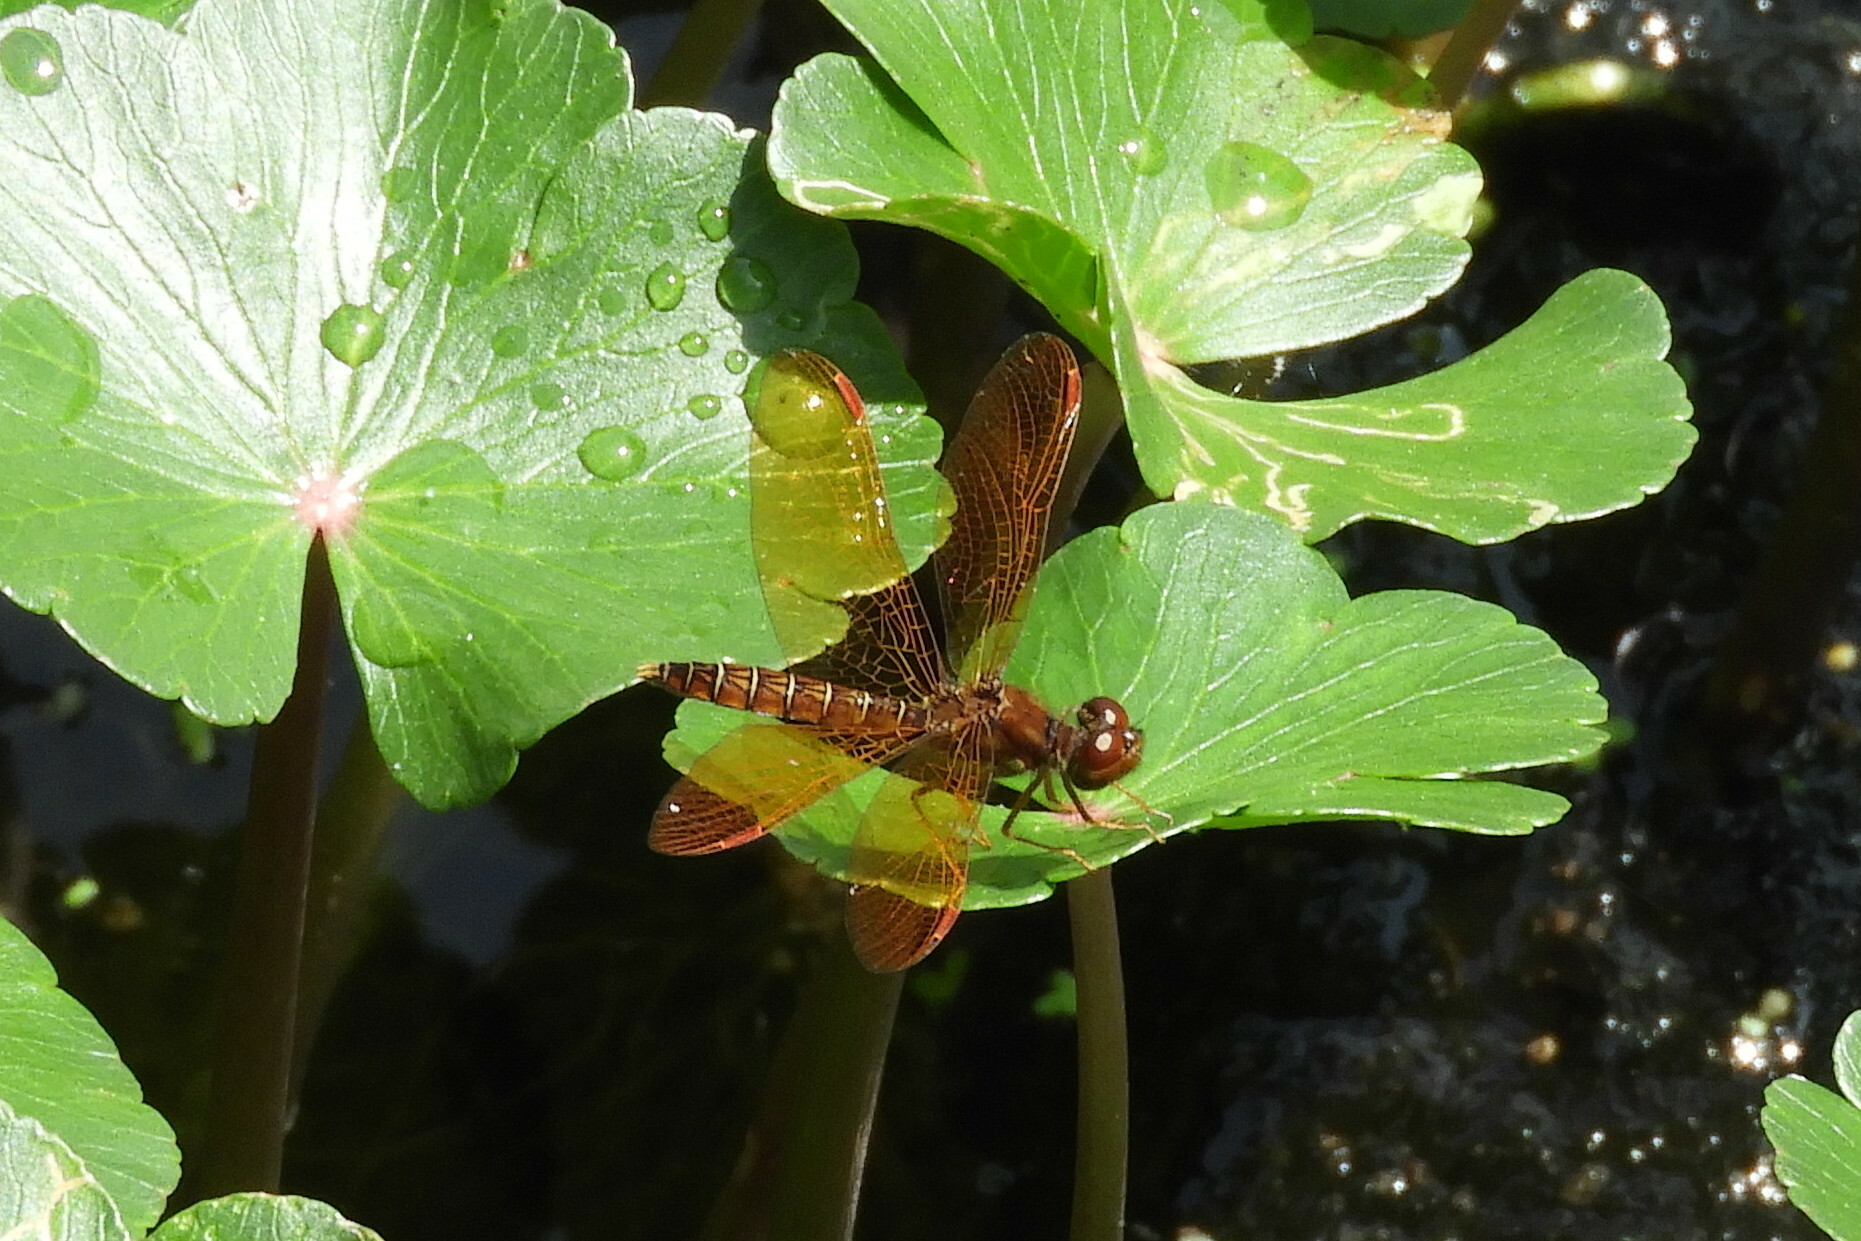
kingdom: Animalia
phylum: Arthropoda
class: Insecta
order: Odonata
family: Libellulidae
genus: Perithemis
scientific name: Perithemis tenera
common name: Eastern amberwing
